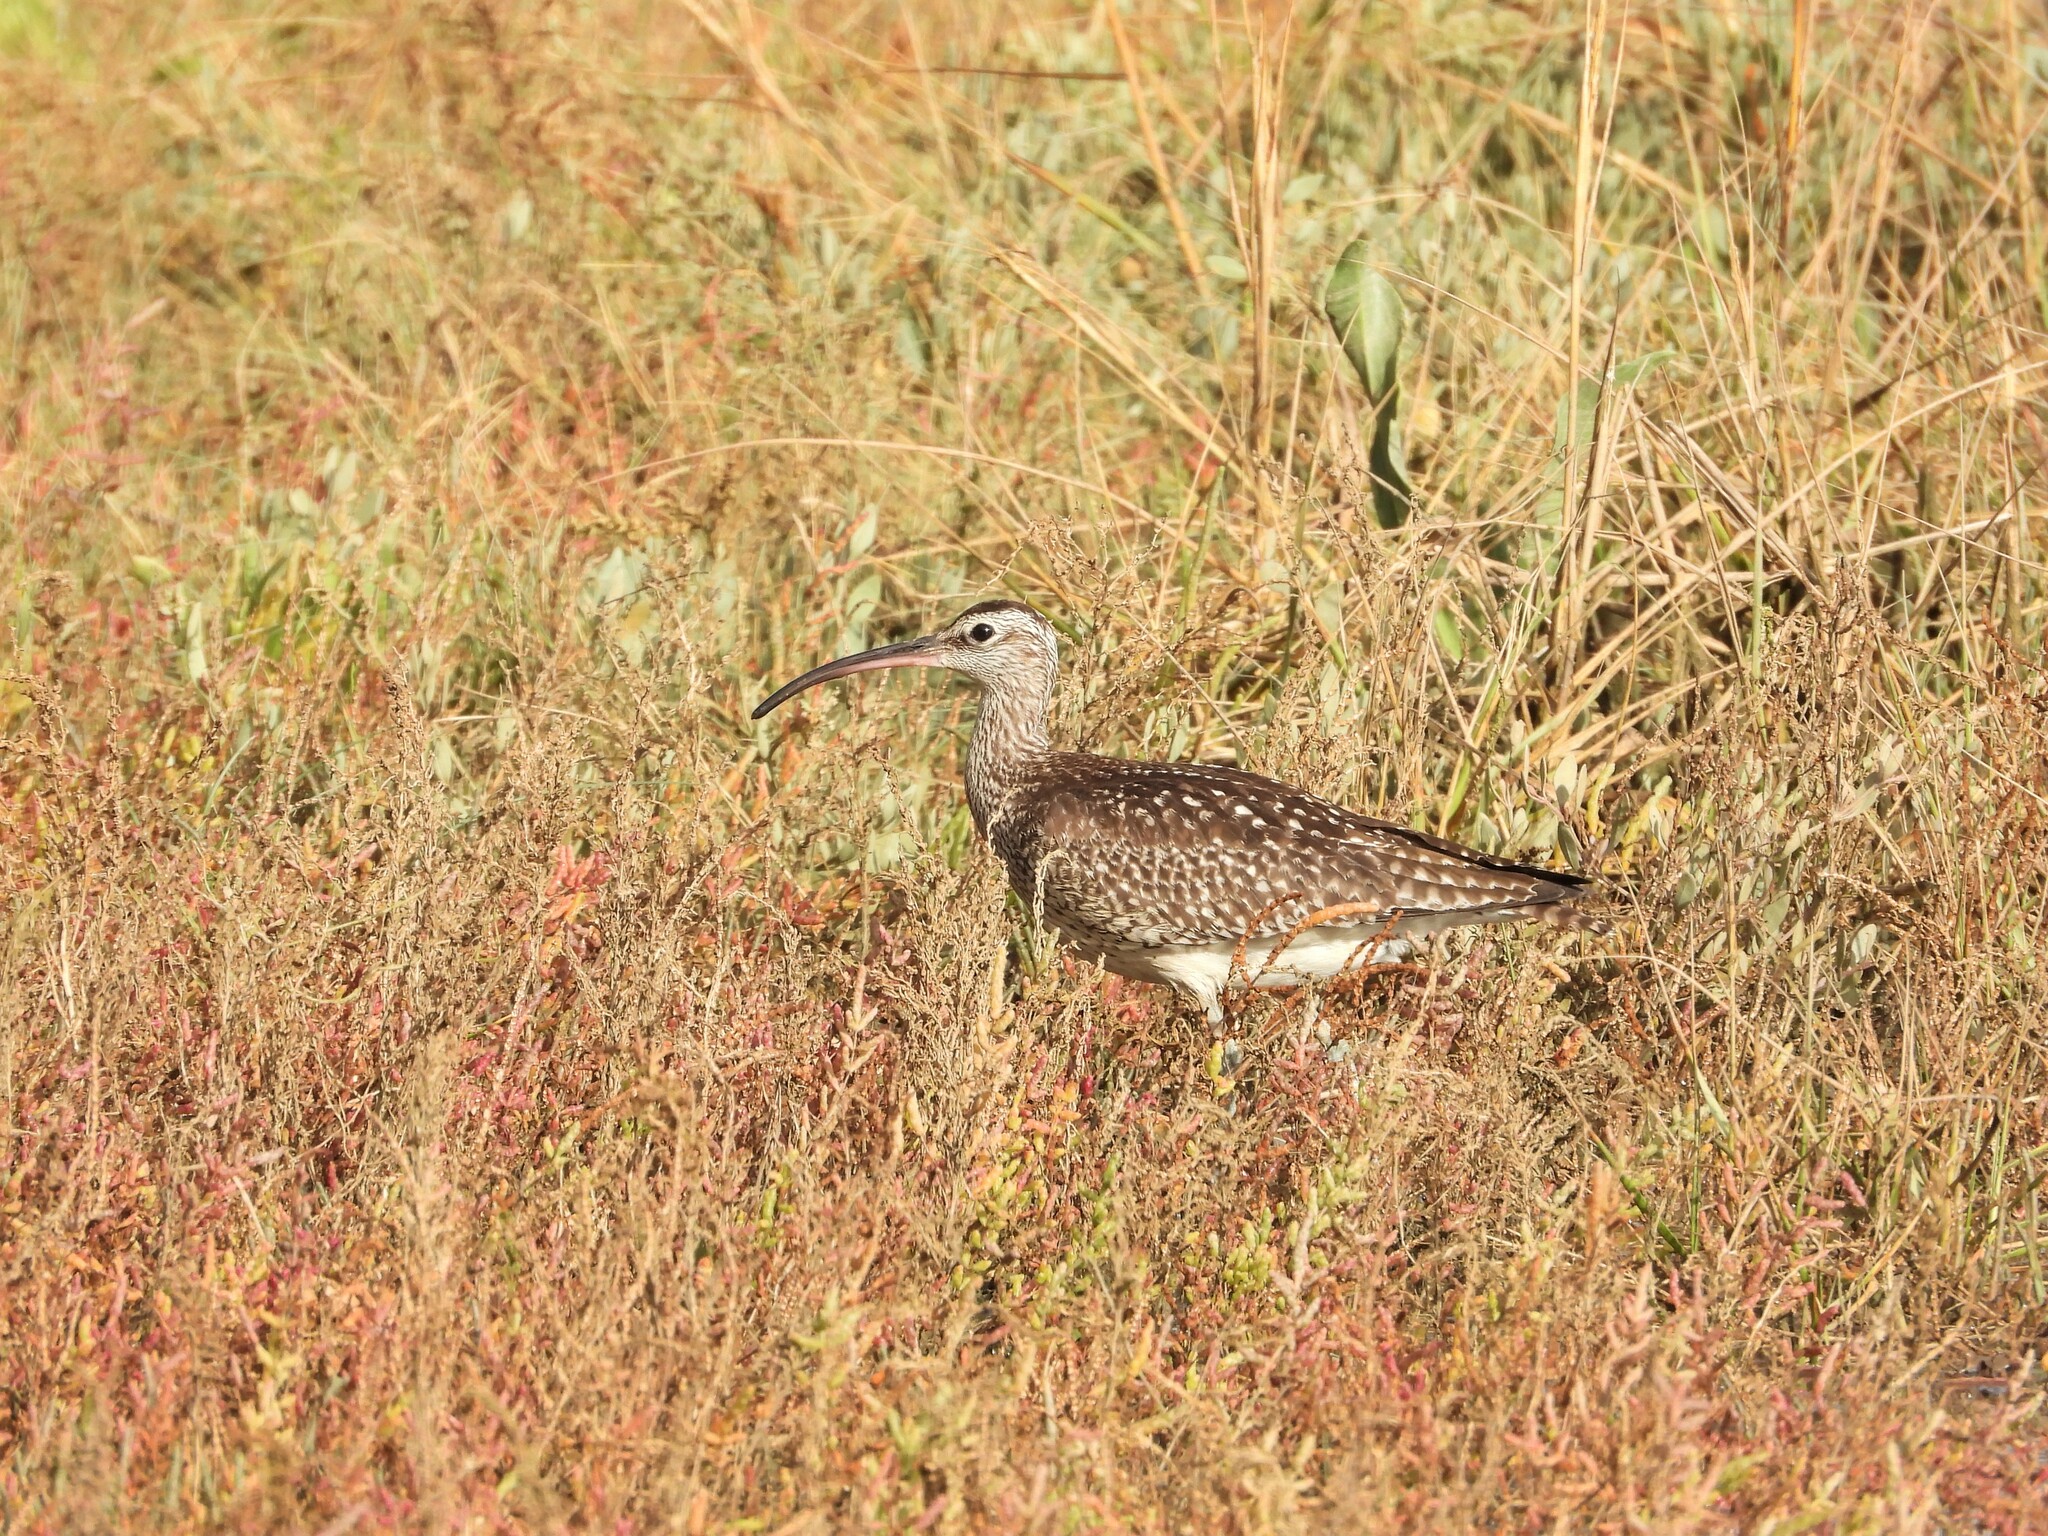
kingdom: Animalia
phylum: Chordata
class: Aves
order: Charadriiformes
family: Scolopacidae
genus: Numenius
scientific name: Numenius phaeopus
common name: Whimbrel
